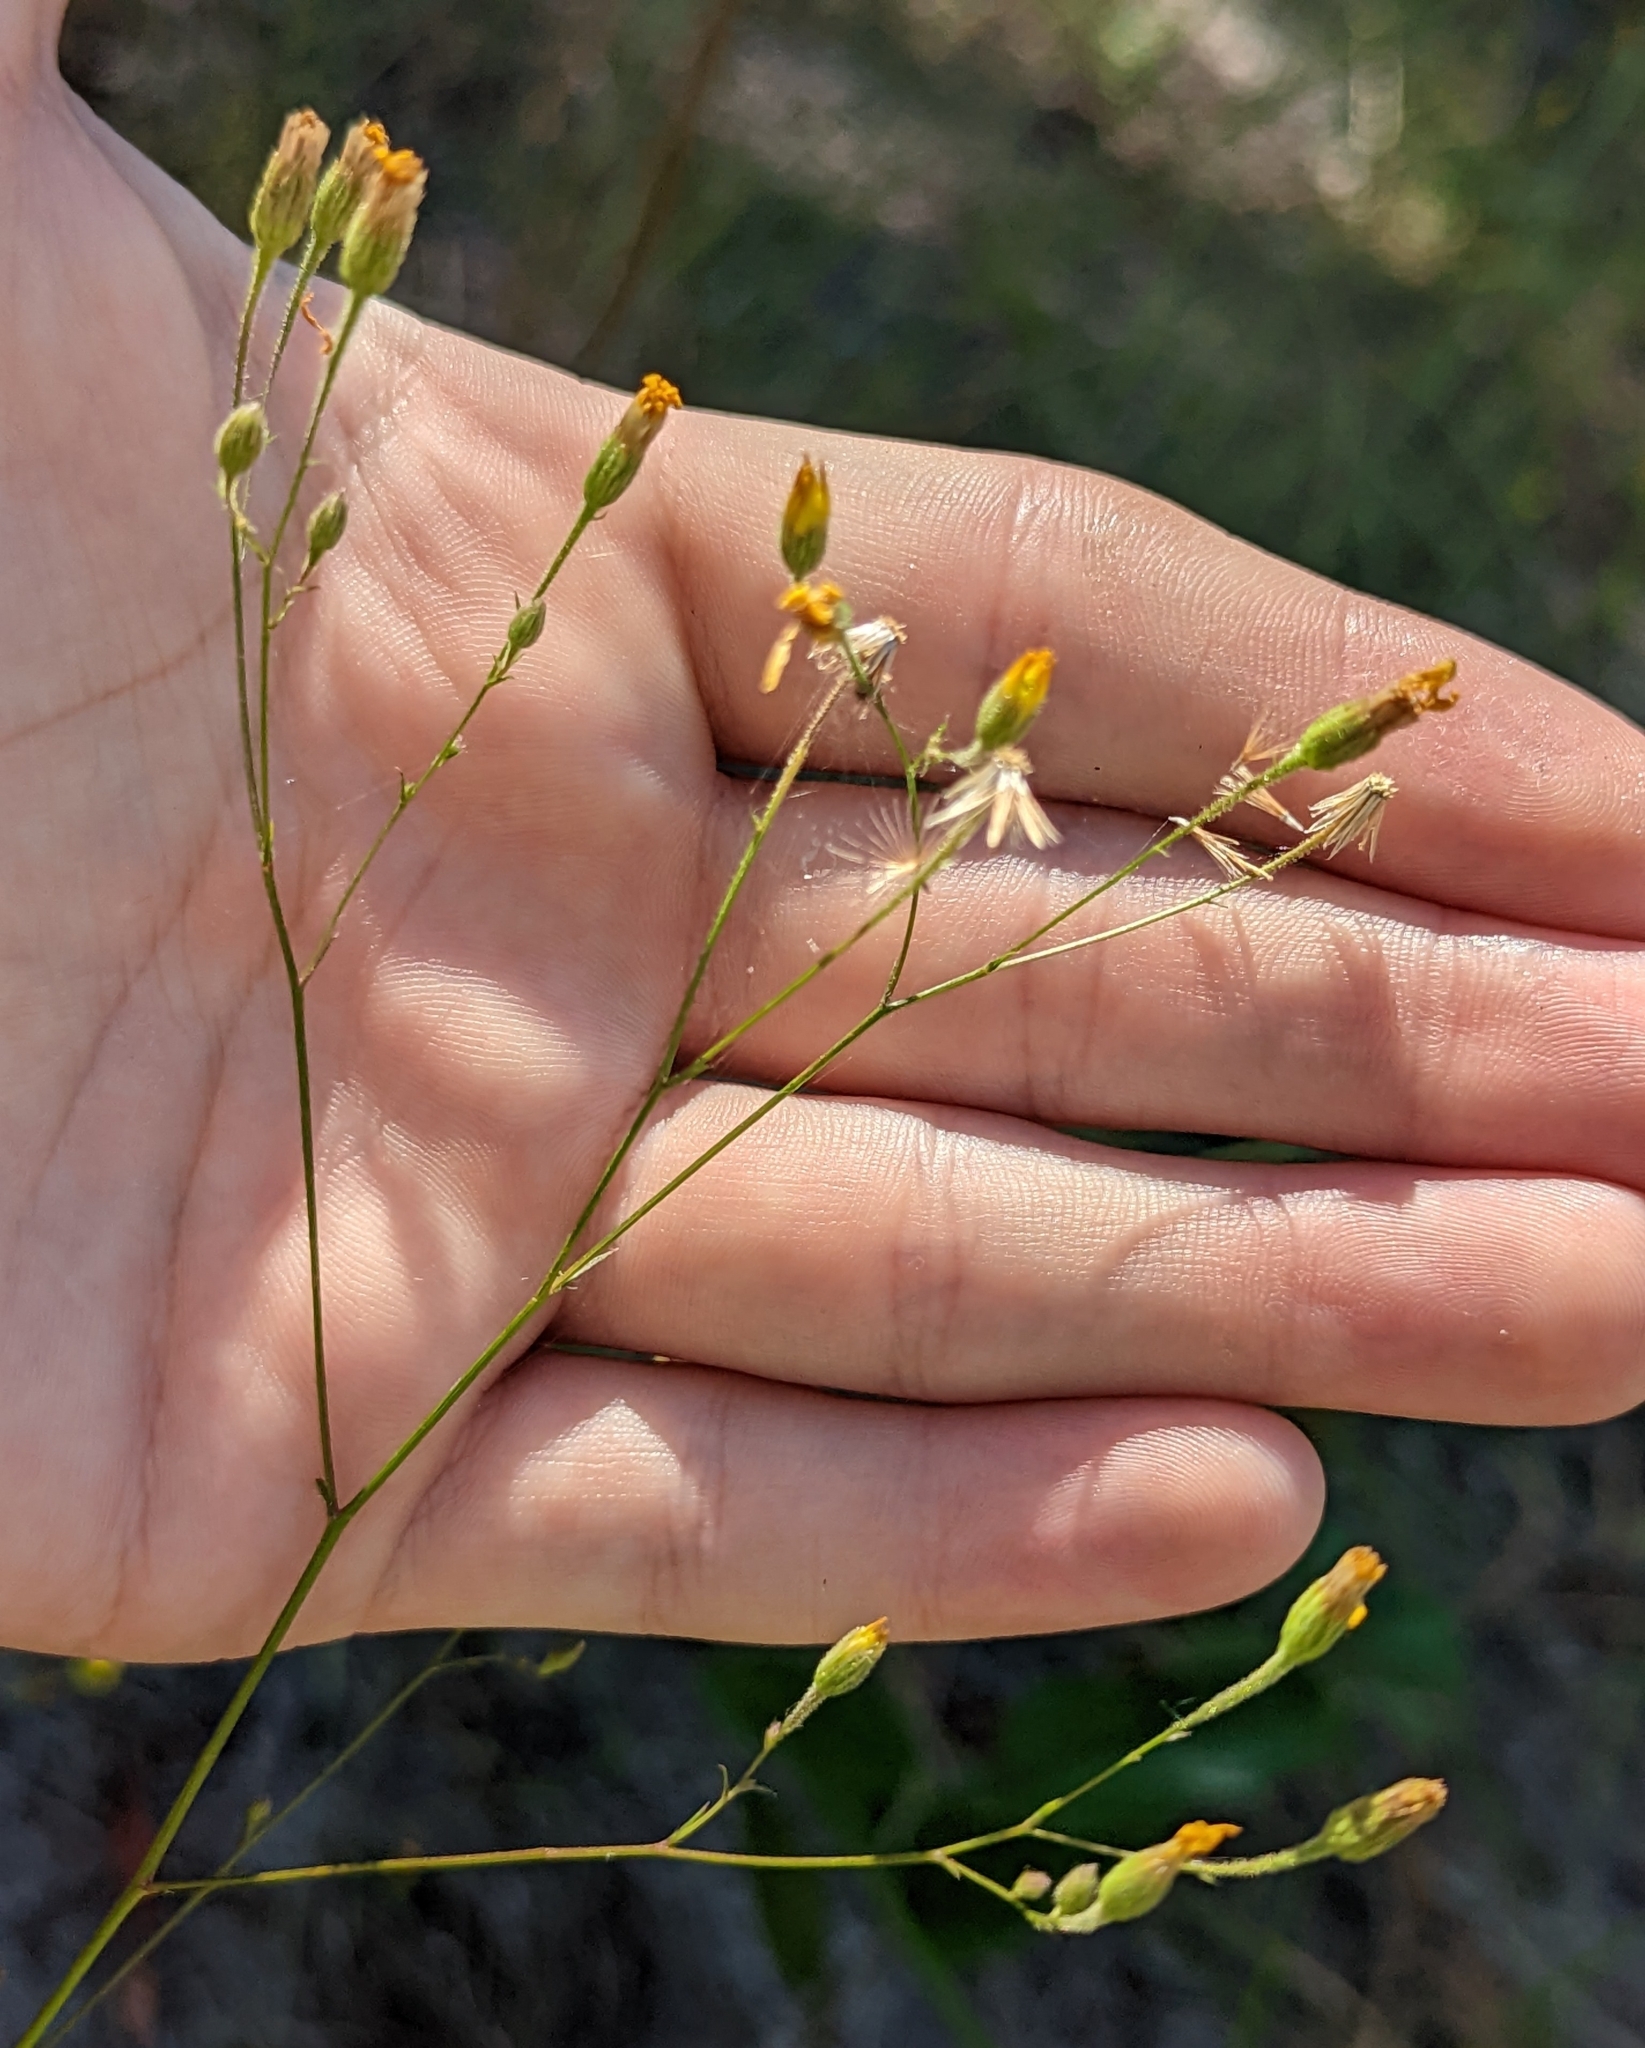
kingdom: Plantae
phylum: Tracheophyta
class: Magnoliopsida
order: Asterales
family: Asteraceae
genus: Croptilon
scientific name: Croptilon divaricatum
